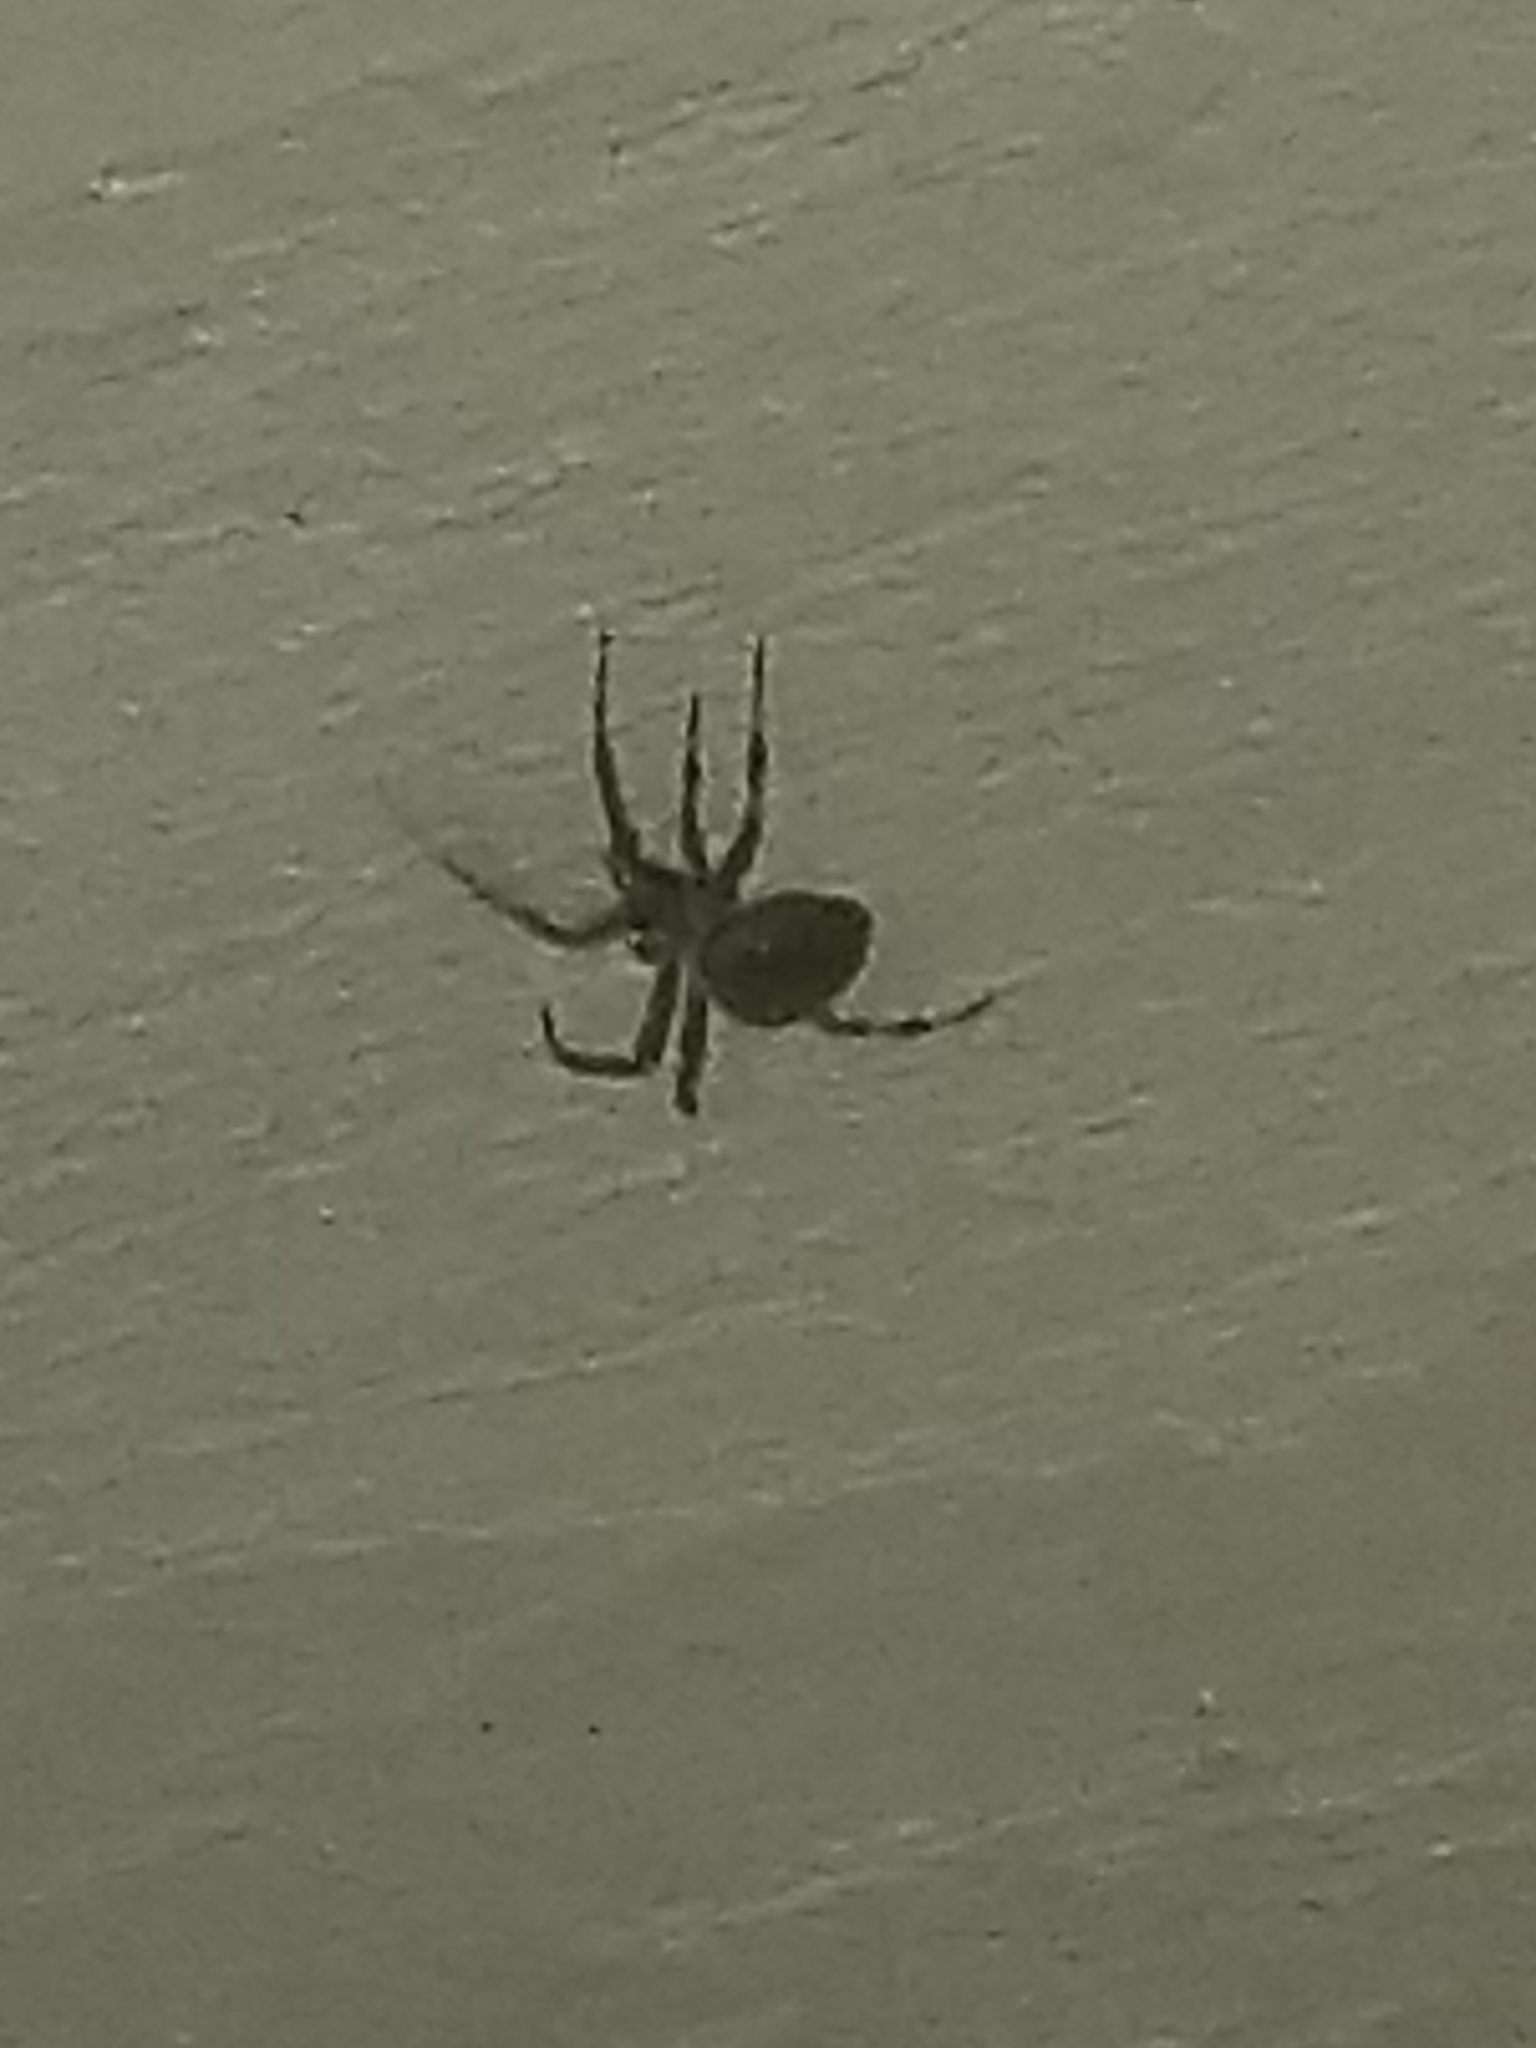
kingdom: Animalia
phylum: Arthropoda
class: Arachnida
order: Araneae
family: Araneidae
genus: Neoscona
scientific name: Neoscona crucifera
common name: Spotted orbweaver
